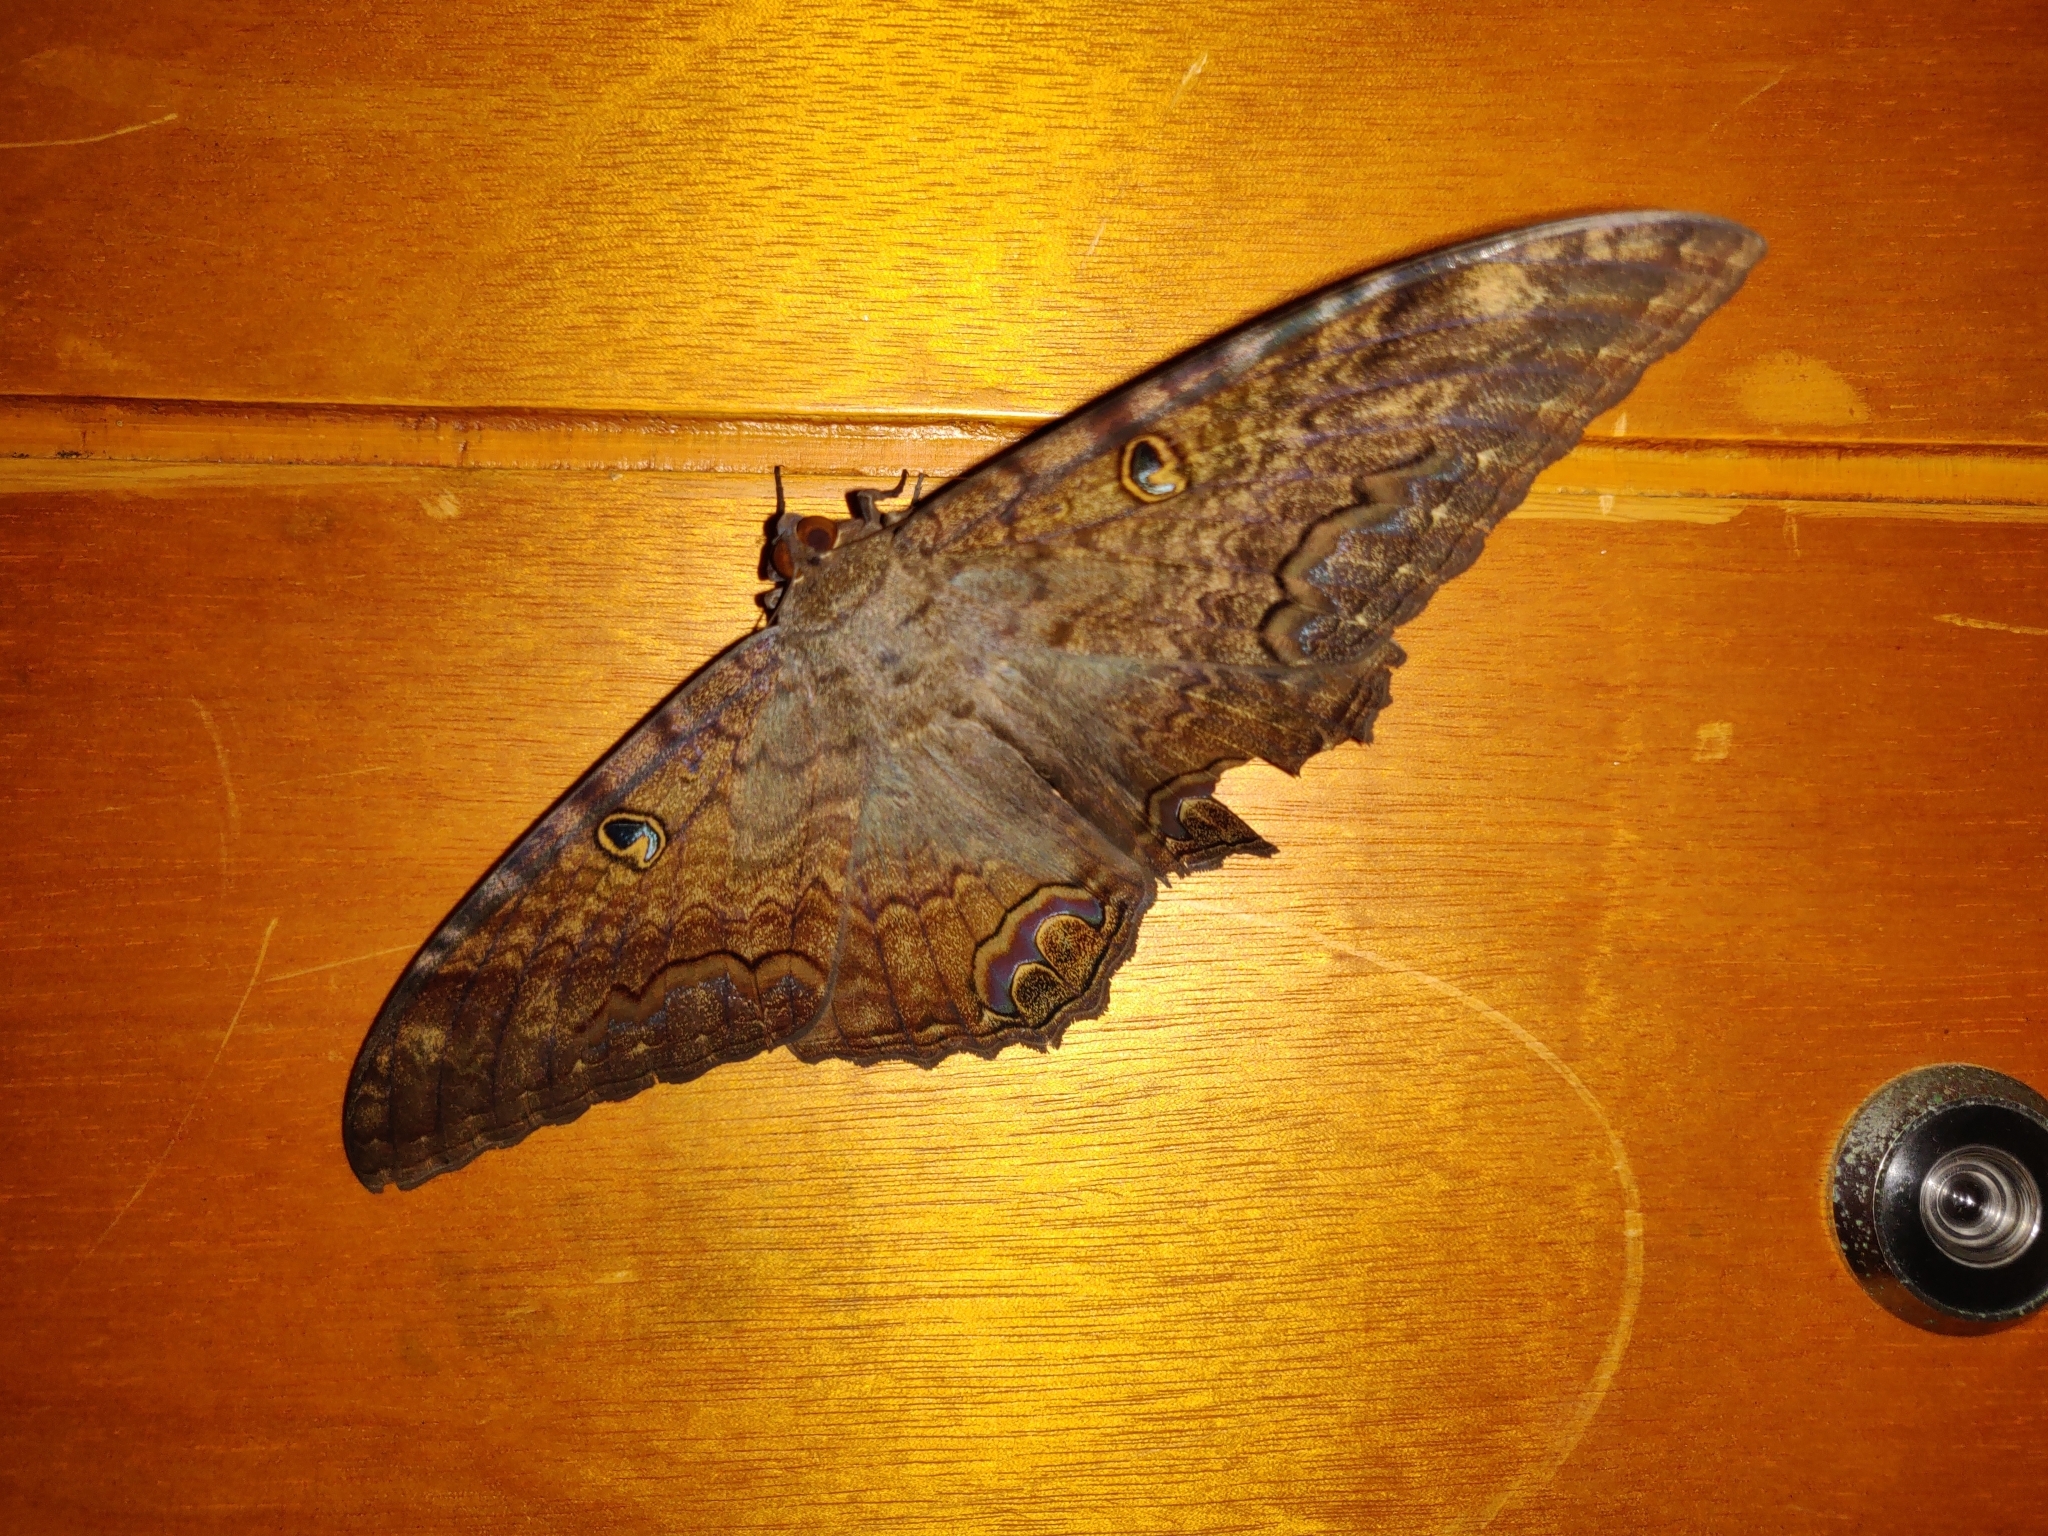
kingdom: Animalia
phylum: Arthropoda
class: Insecta
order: Lepidoptera
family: Erebidae
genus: Ascalapha
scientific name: Ascalapha odorata
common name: Black witch
